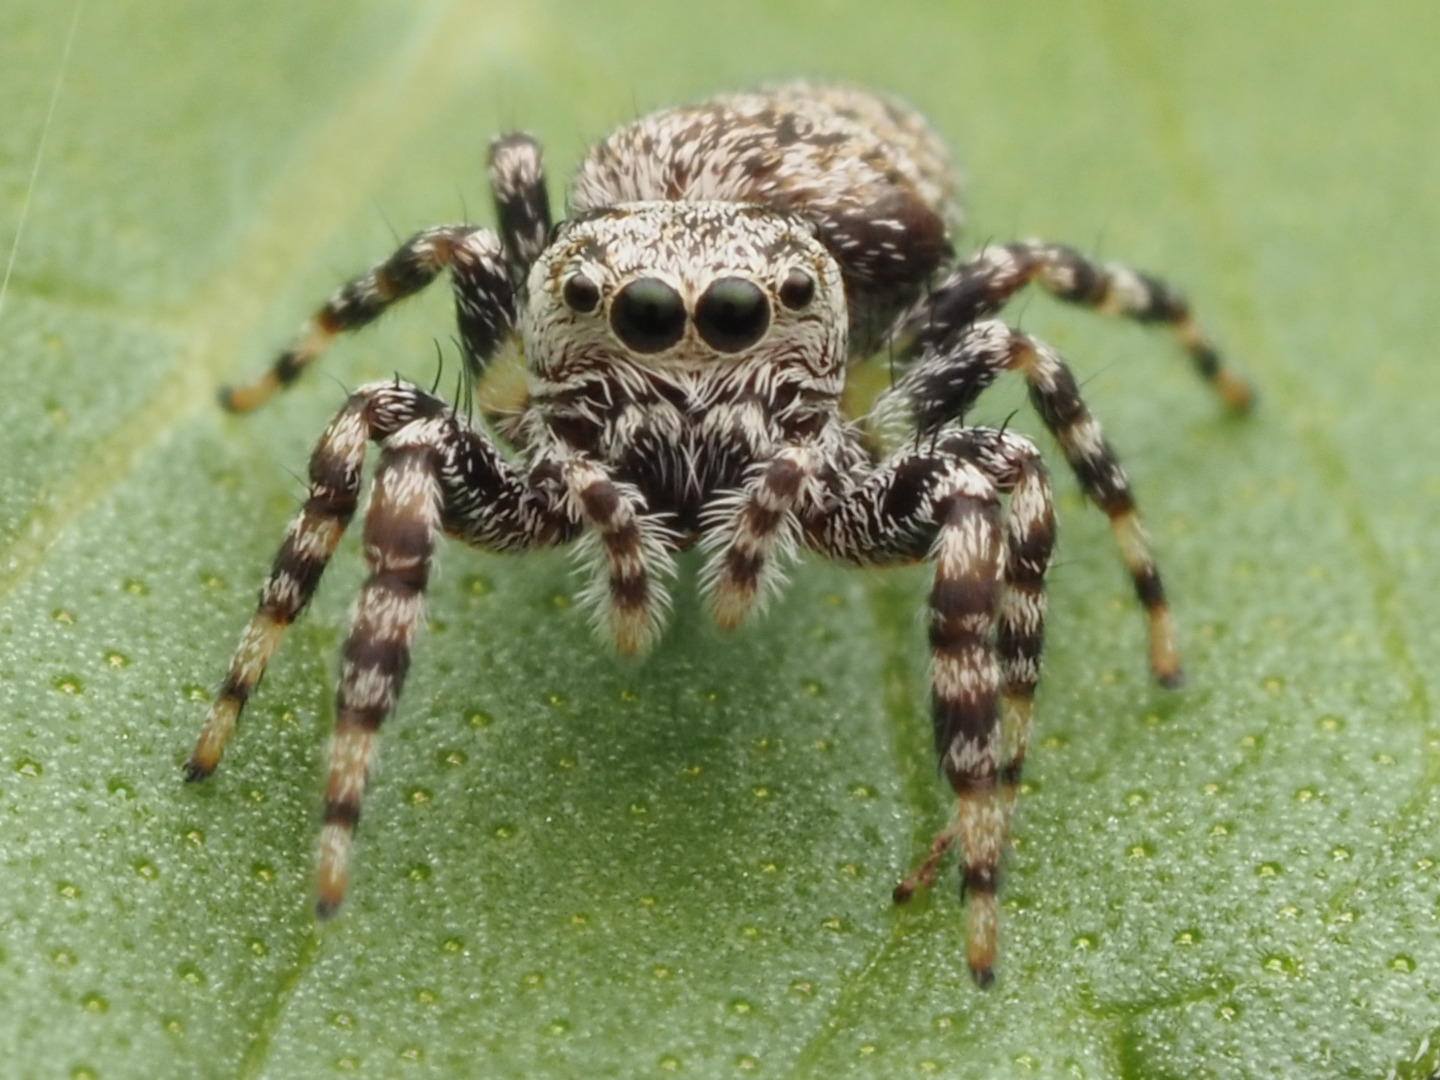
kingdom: Animalia
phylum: Arthropoda
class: Arachnida
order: Araneae
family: Salticidae
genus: Pelegrina
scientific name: Pelegrina galathea
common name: Jumping spiders
